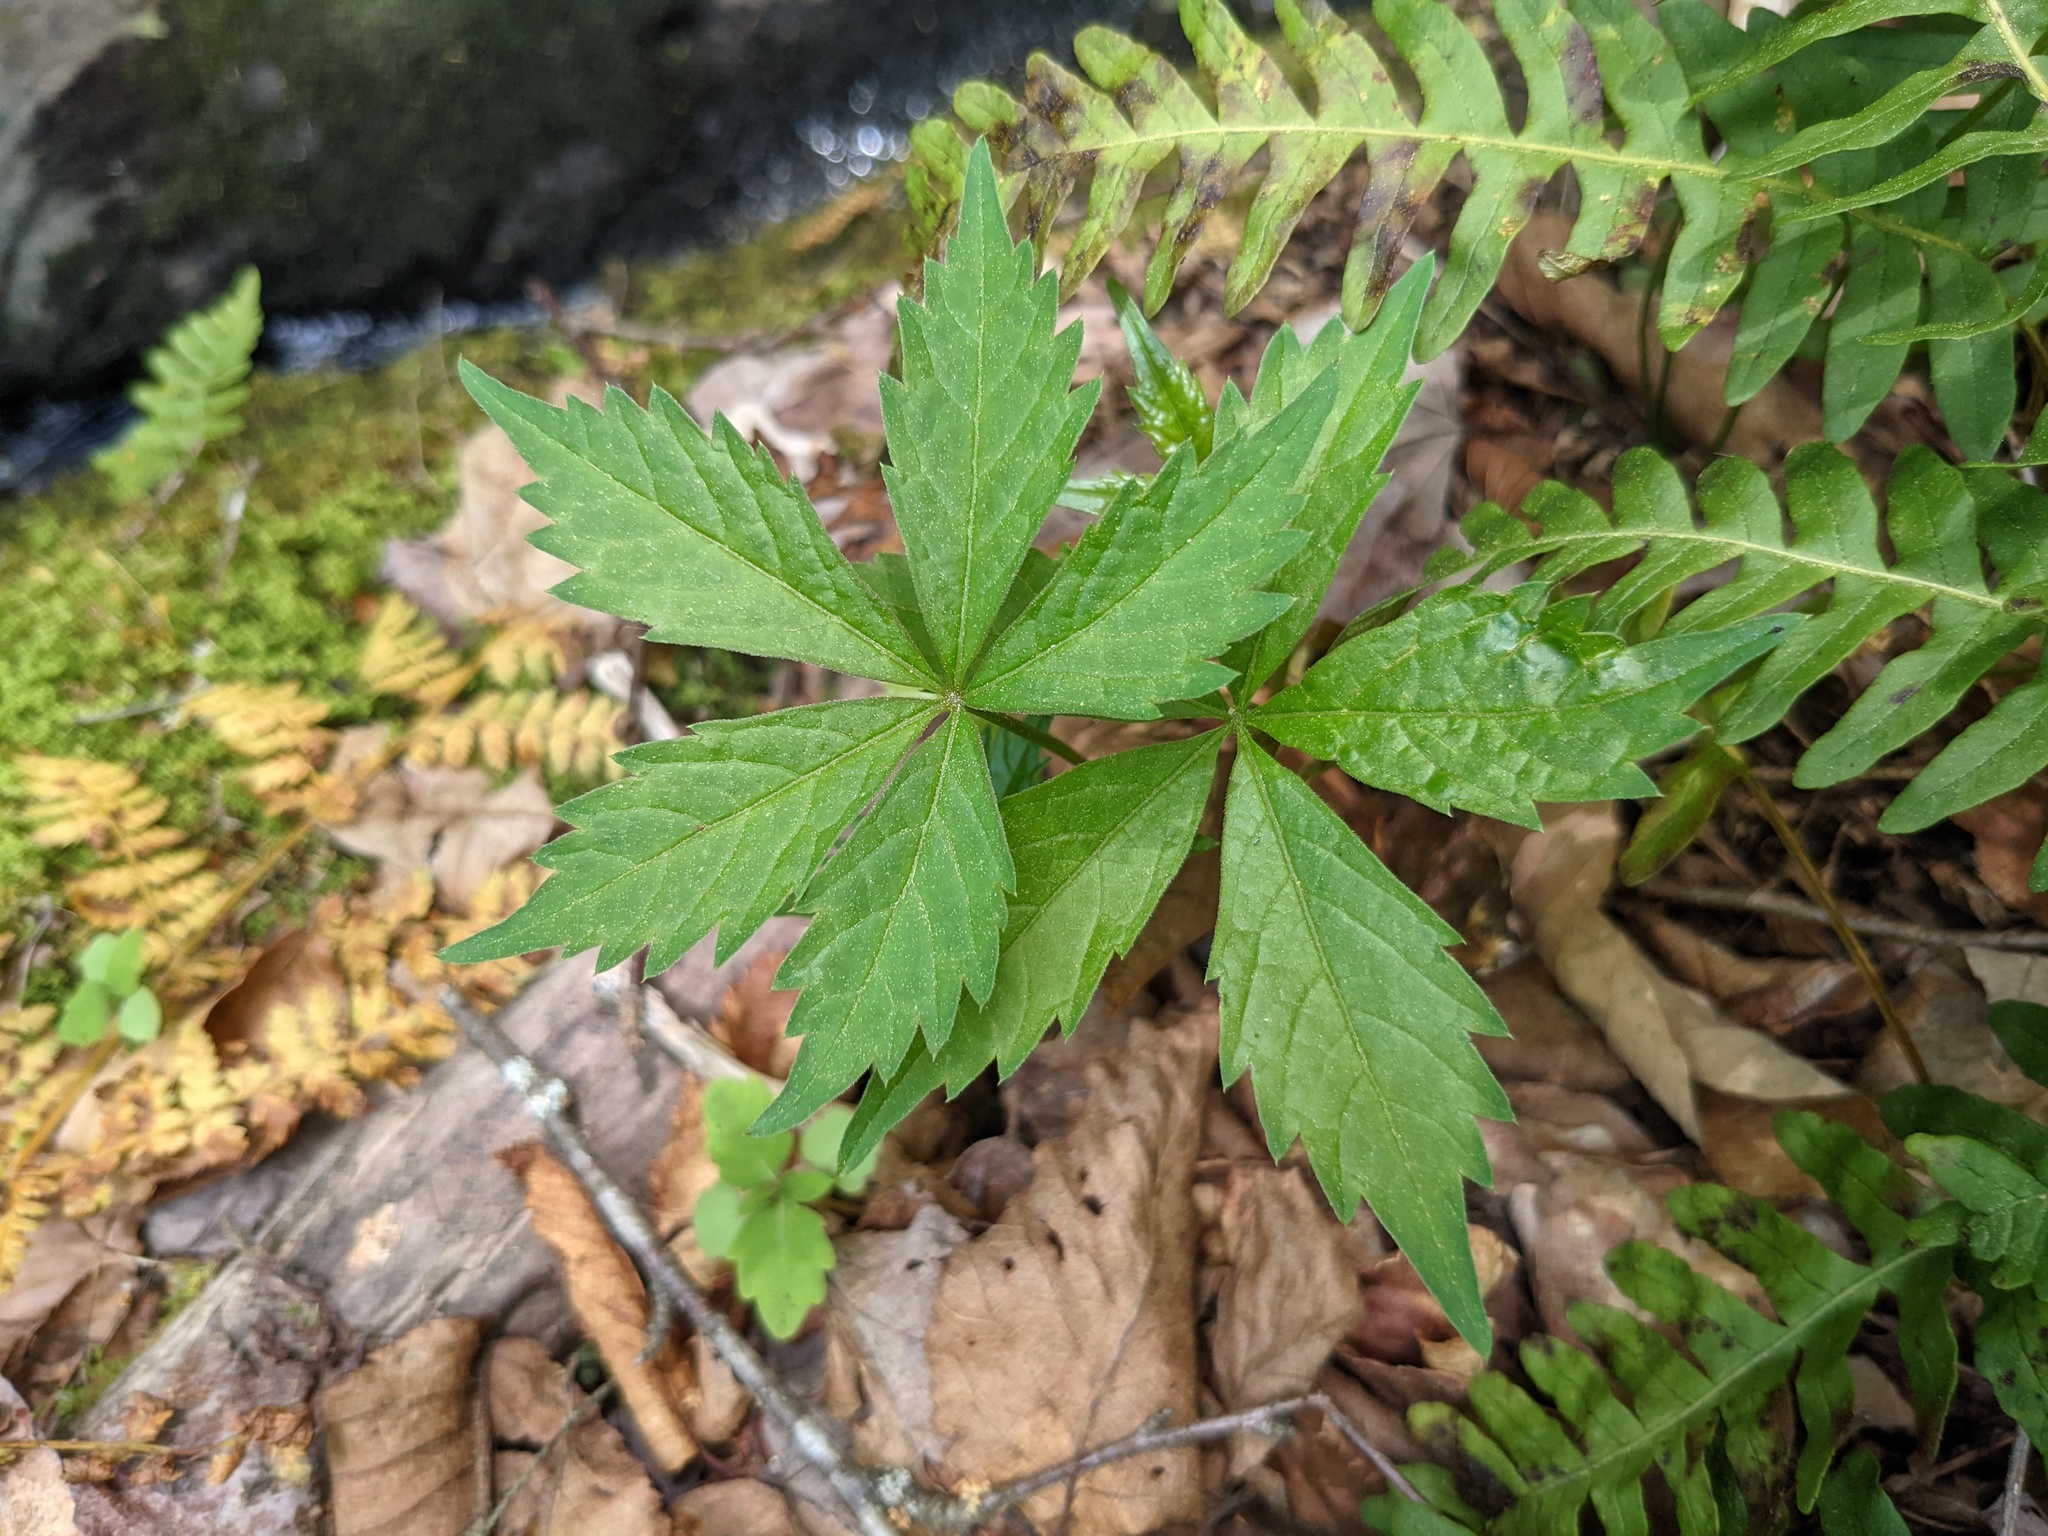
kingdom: Plantae
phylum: Tracheophyta
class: Magnoliopsida
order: Vitales
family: Vitaceae
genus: Parthenocissus
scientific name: Parthenocissus quinquefolia
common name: Virginia-creeper
